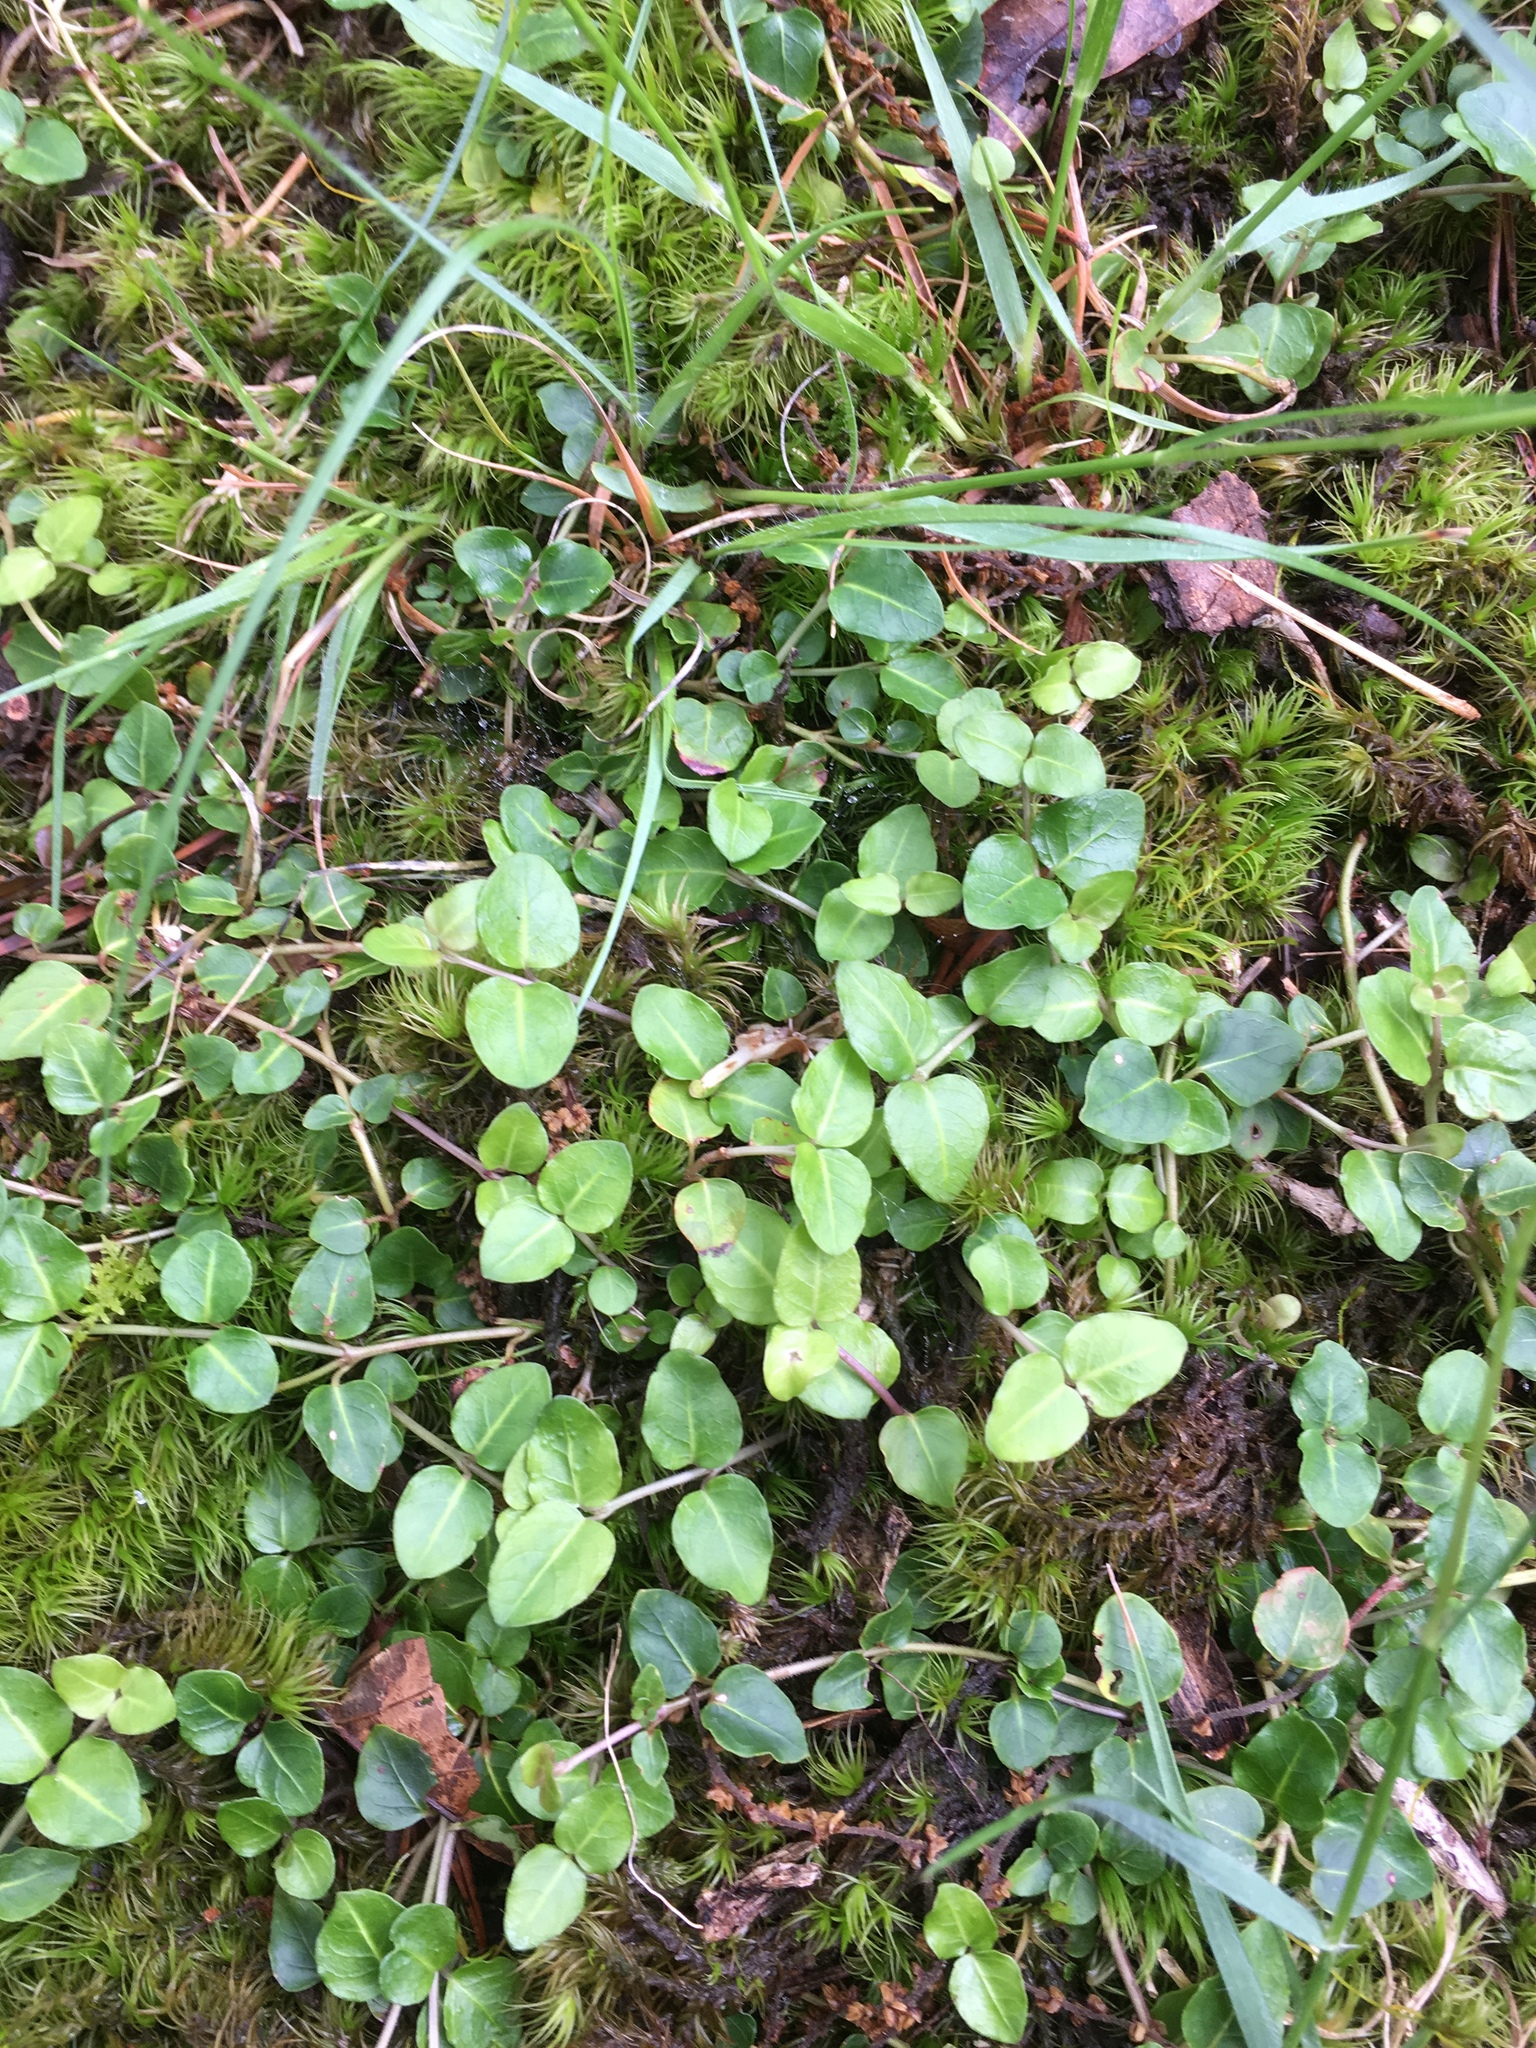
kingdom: Plantae
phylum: Tracheophyta
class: Magnoliopsida
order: Gentianales
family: Rubiaceae
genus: Mitchella
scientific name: Mitchella repens
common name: Partridge-berry
